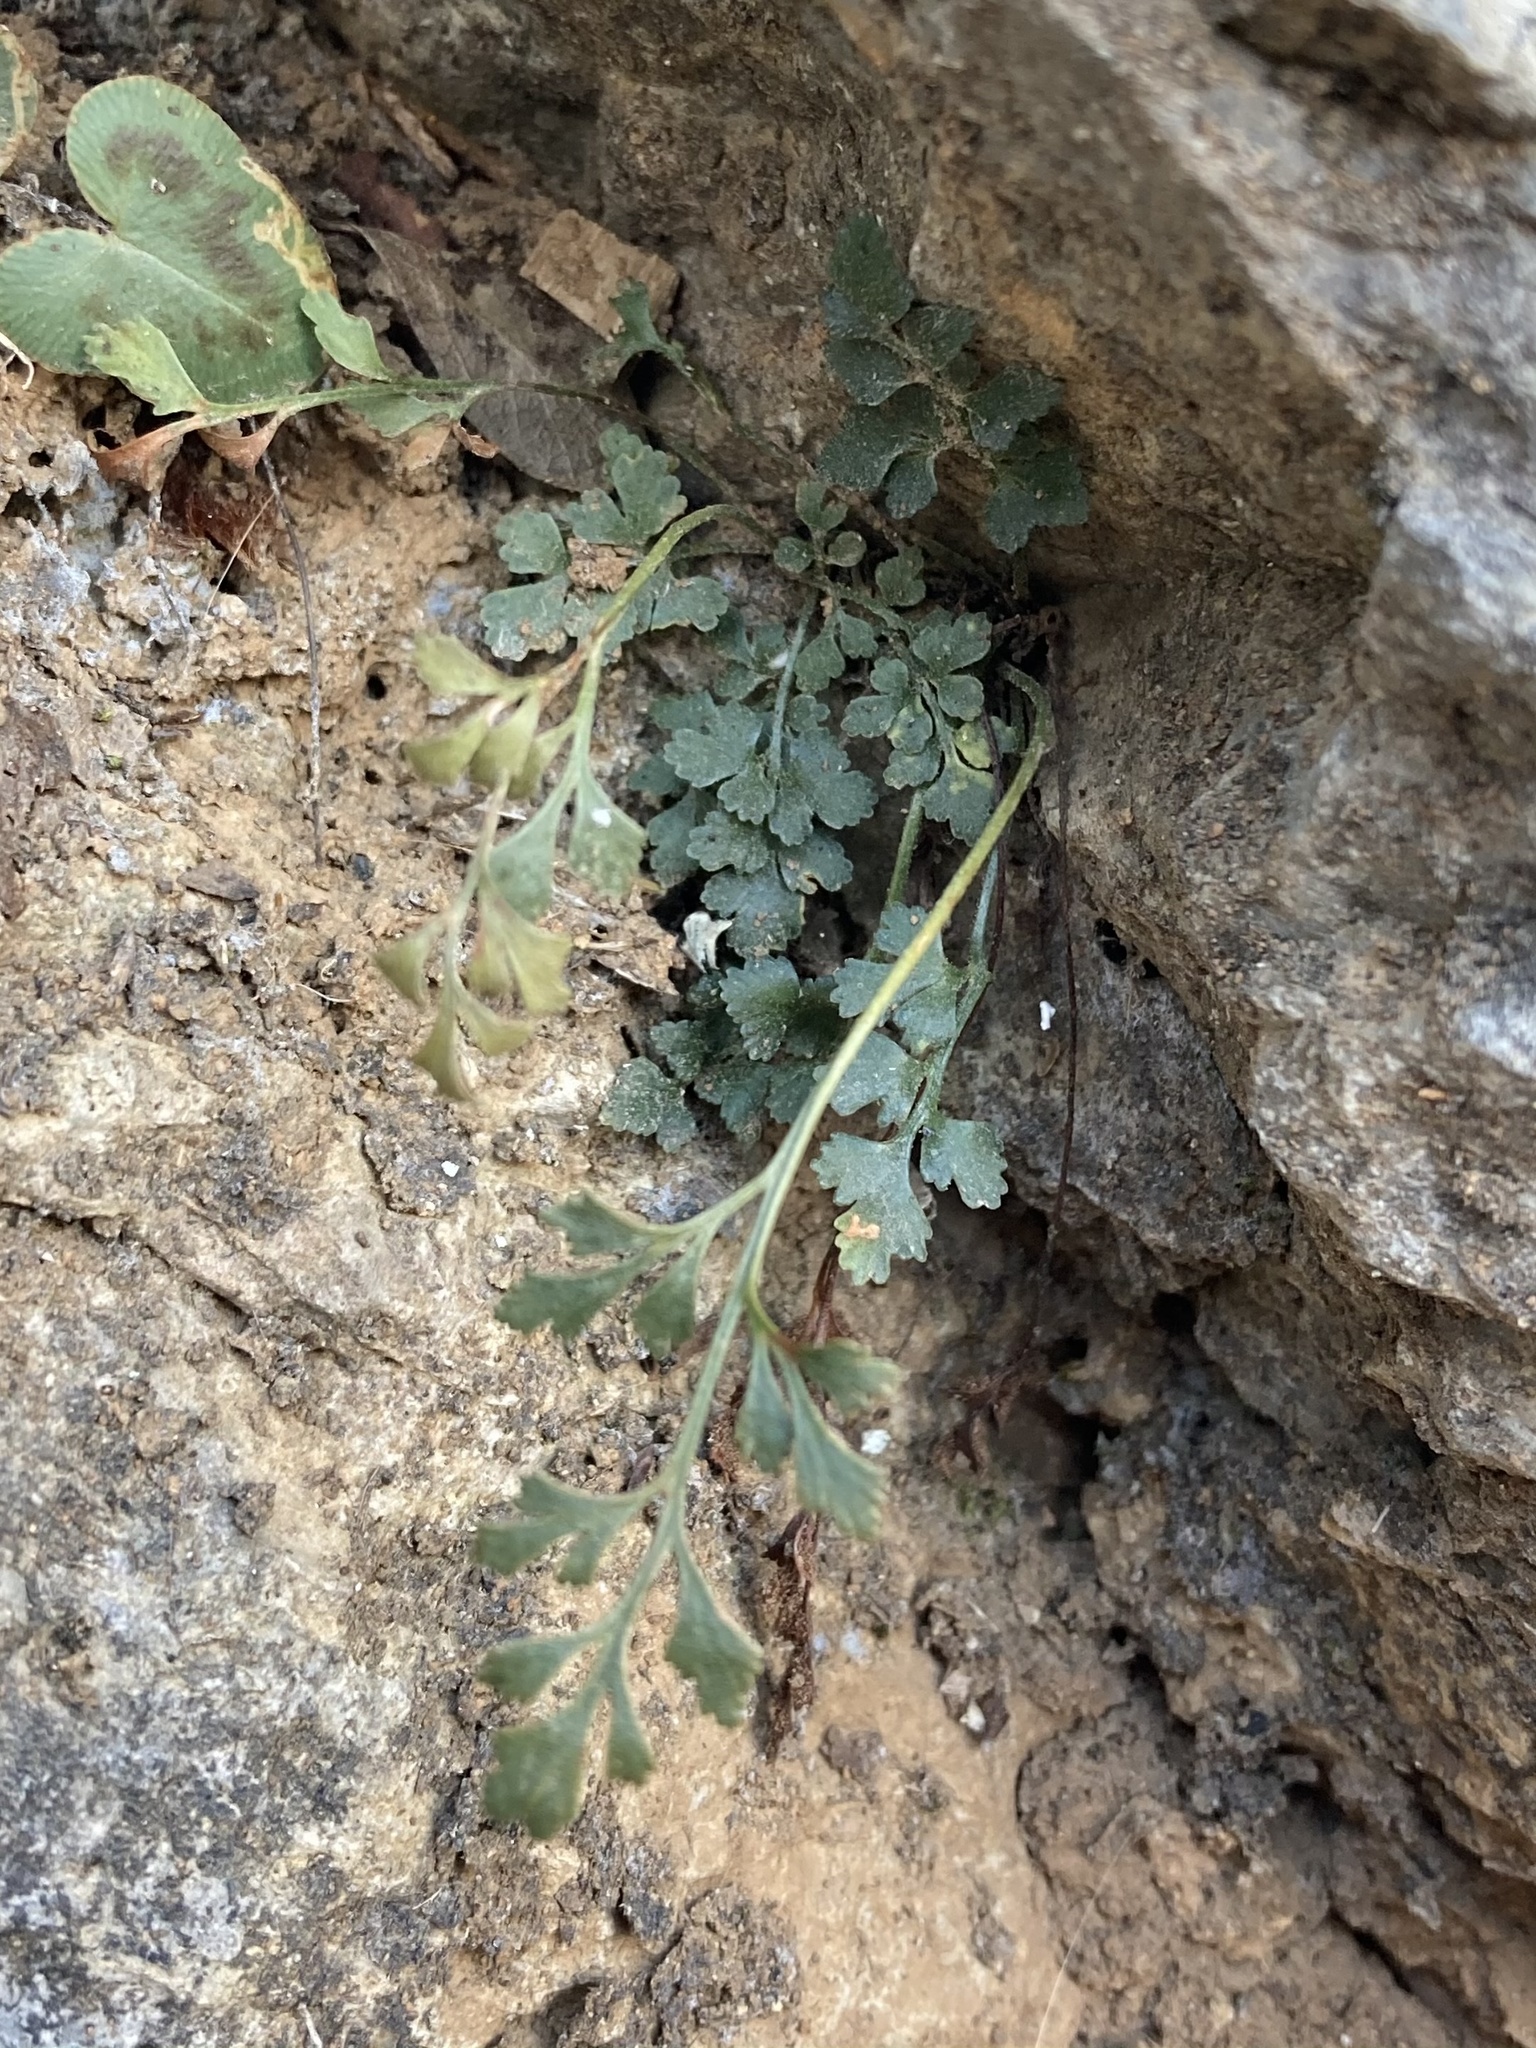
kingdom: Plantae
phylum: Tracheophyta
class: Polypodiopsida
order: Polypodiales
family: Aspleniaceae
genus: Asplenium
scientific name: Asplenium ruta-muraria
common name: Wall-rue
